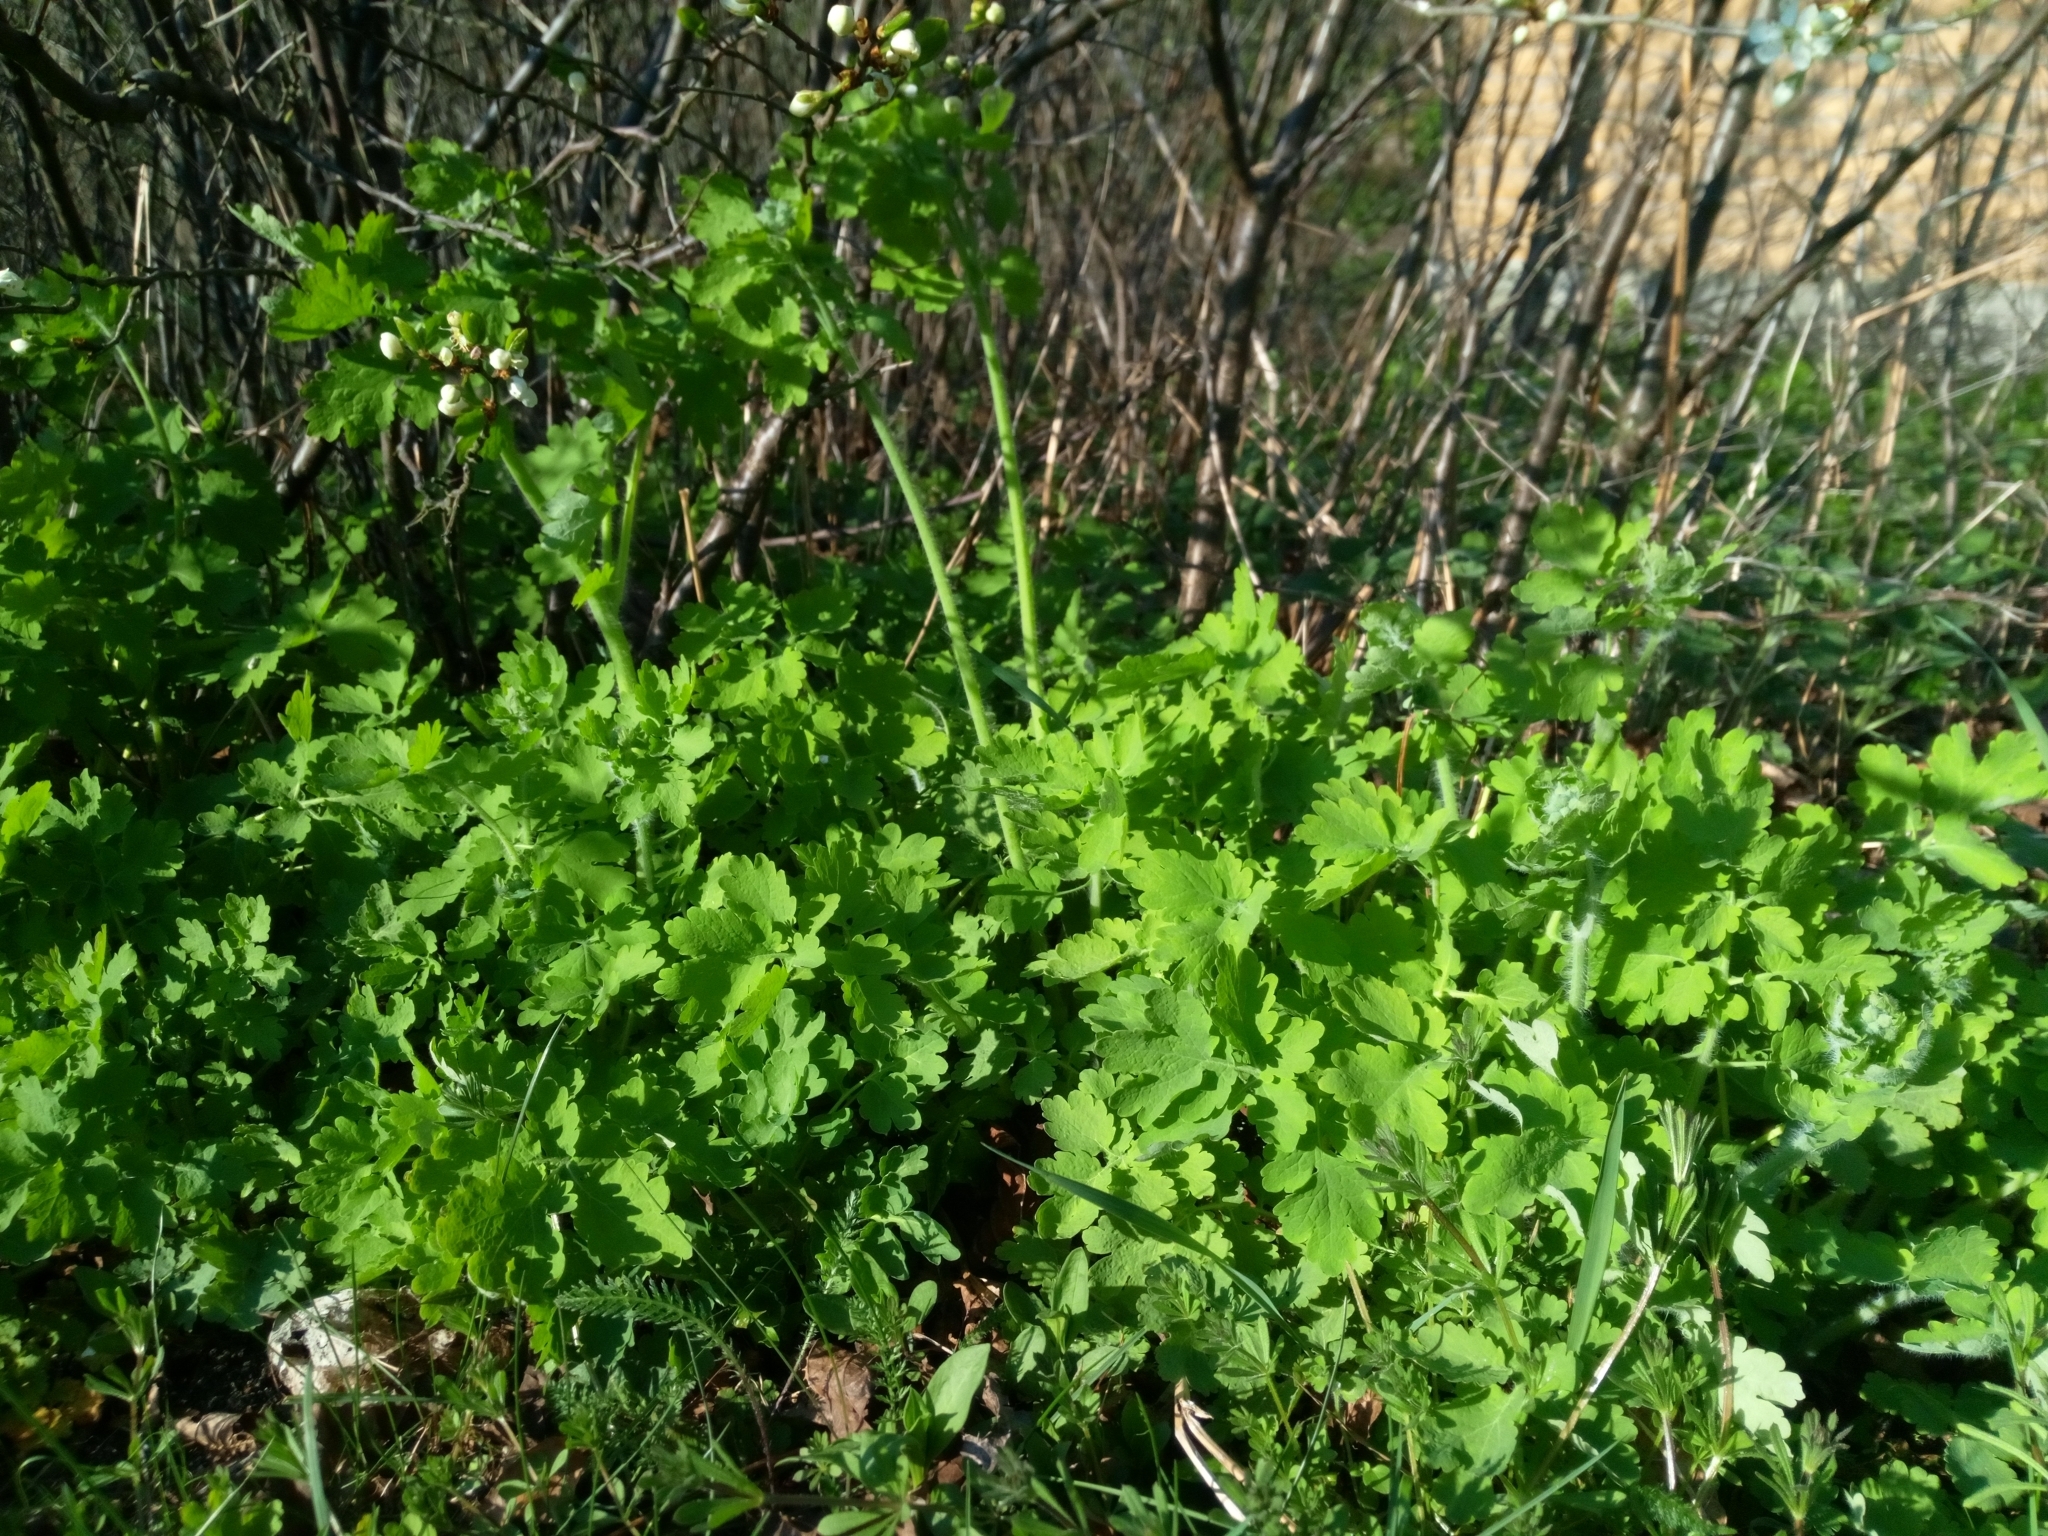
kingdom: Plantae
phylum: Tracheophyta
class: Magnoliopsida
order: Ranunculales
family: Papaveraceae
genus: Chelidonium
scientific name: Chelidonium majus
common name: Greater celandine
